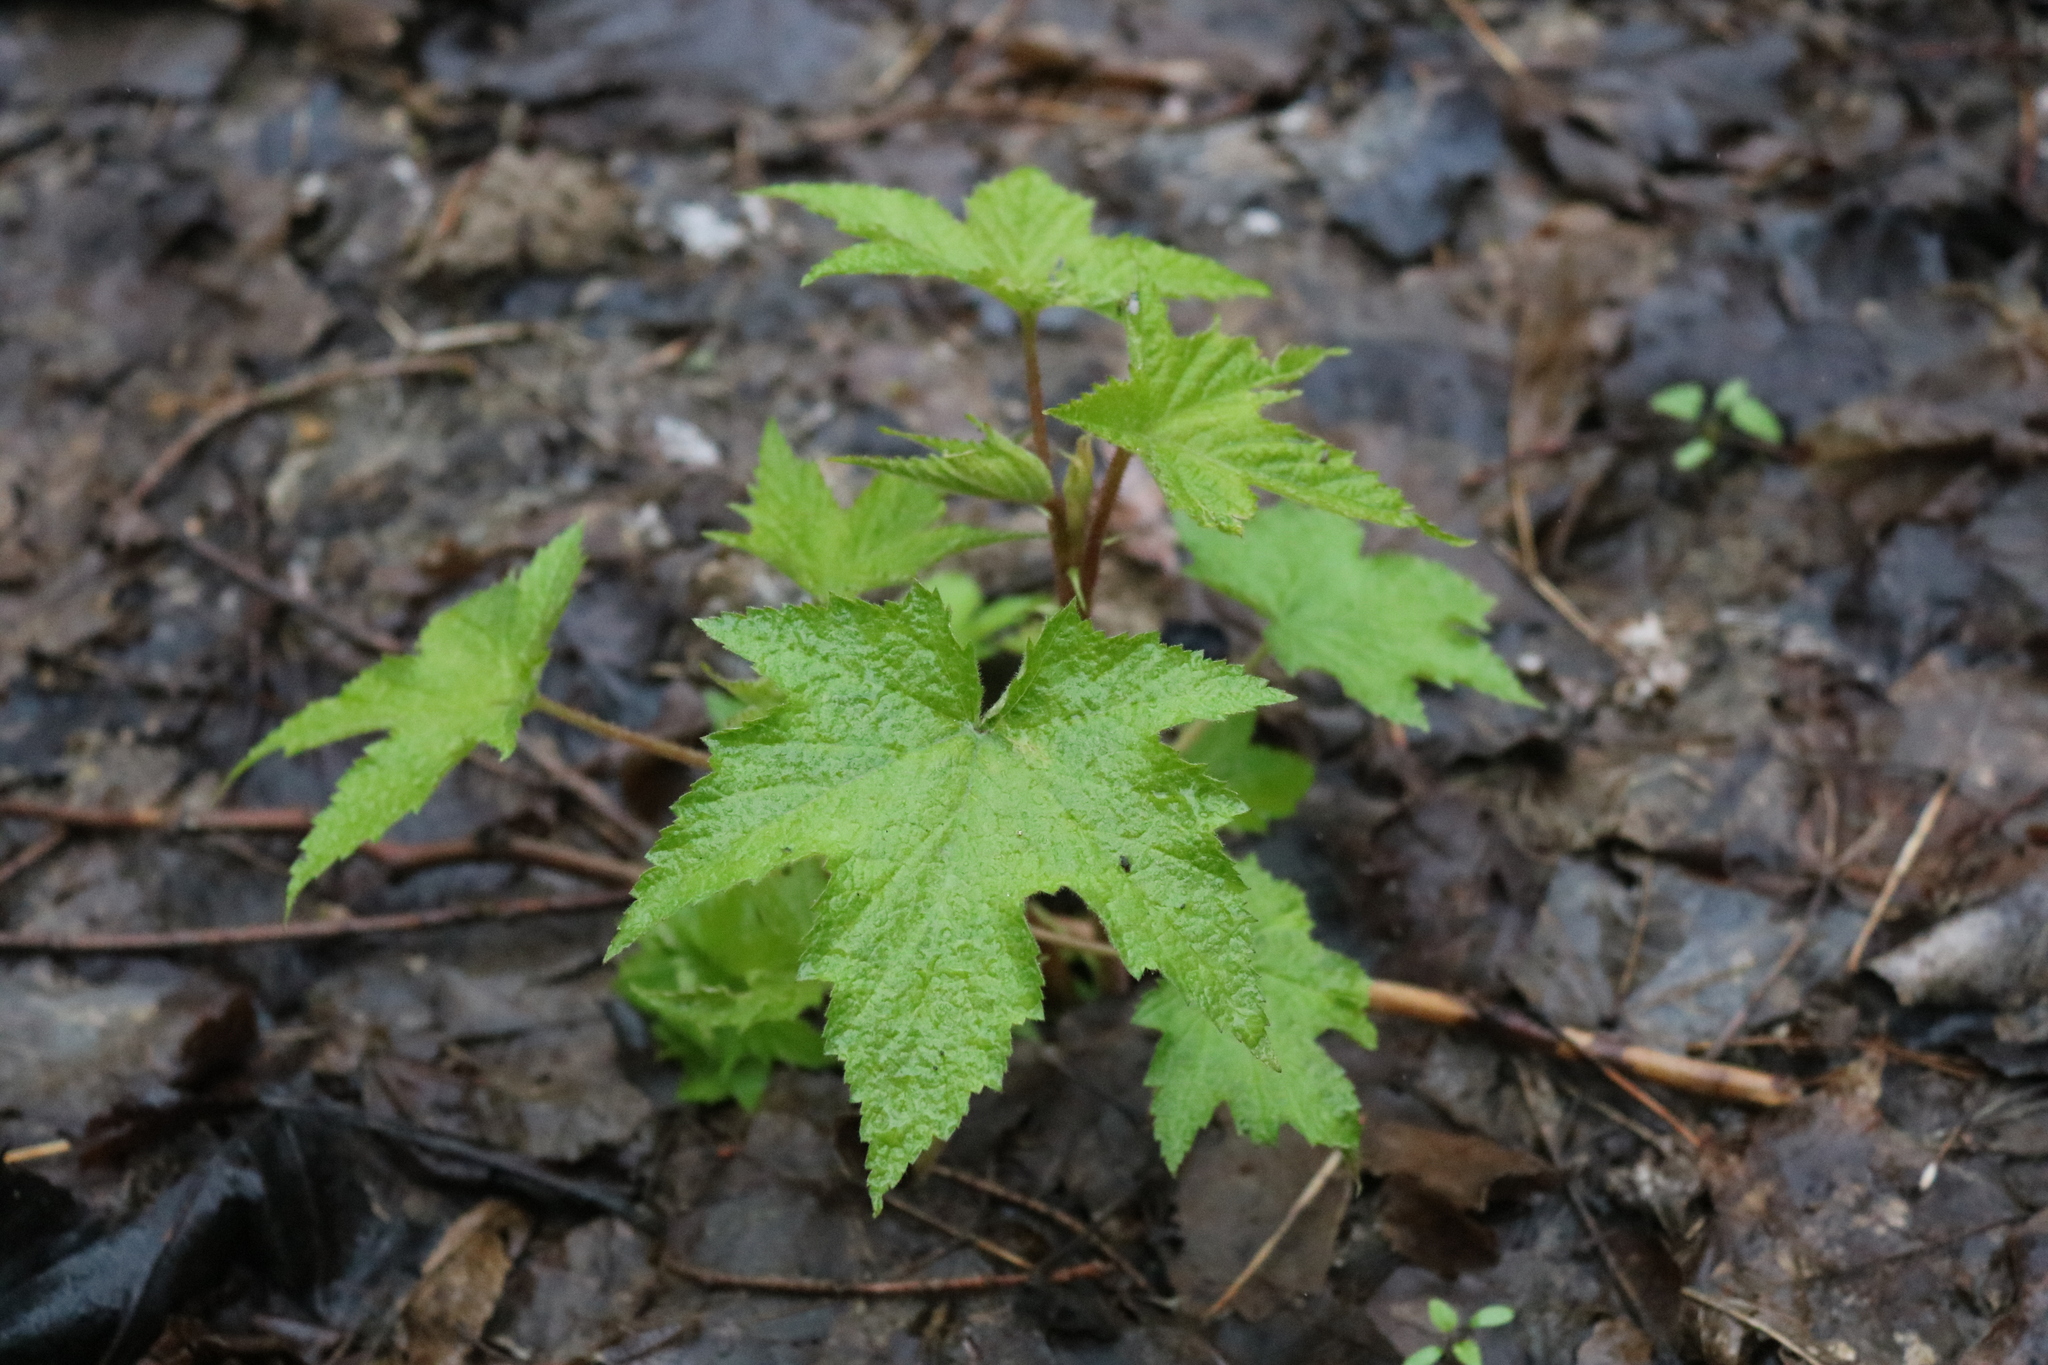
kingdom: Plantae
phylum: Tracheophyta
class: Magnoliopsida
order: Rosales
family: Rosaceae
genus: Rubus
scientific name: Rubus odoratus
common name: Purple-flowered raspberry
